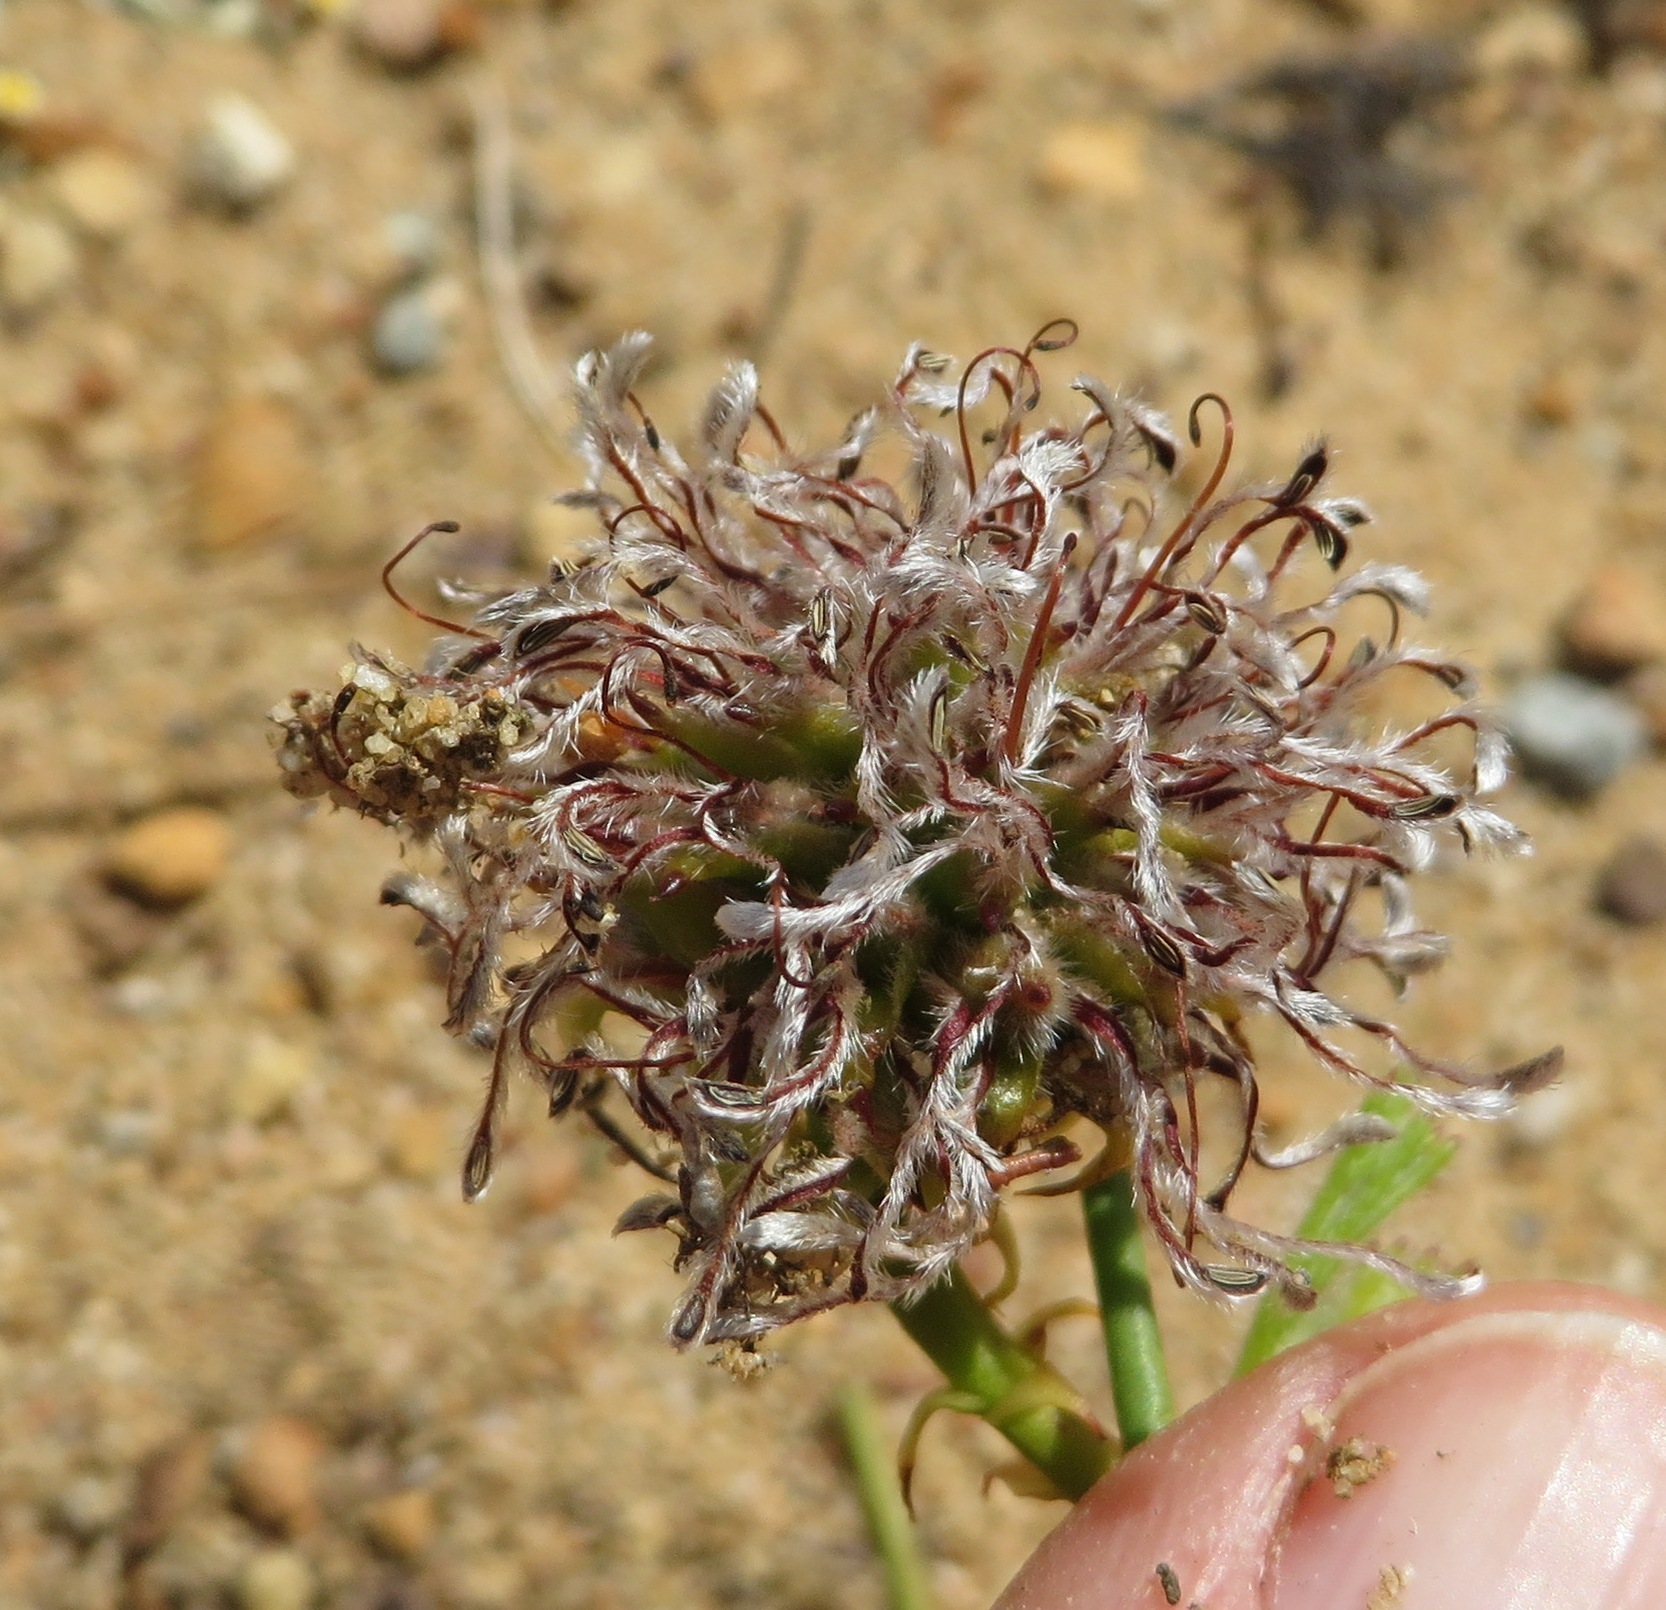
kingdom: Plantae
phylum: Tracheophyta
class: Magnoliopsida
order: Proteales
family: Proteaceae
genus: Serruria
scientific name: Serruria effusa
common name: Candelabra spiderhead
